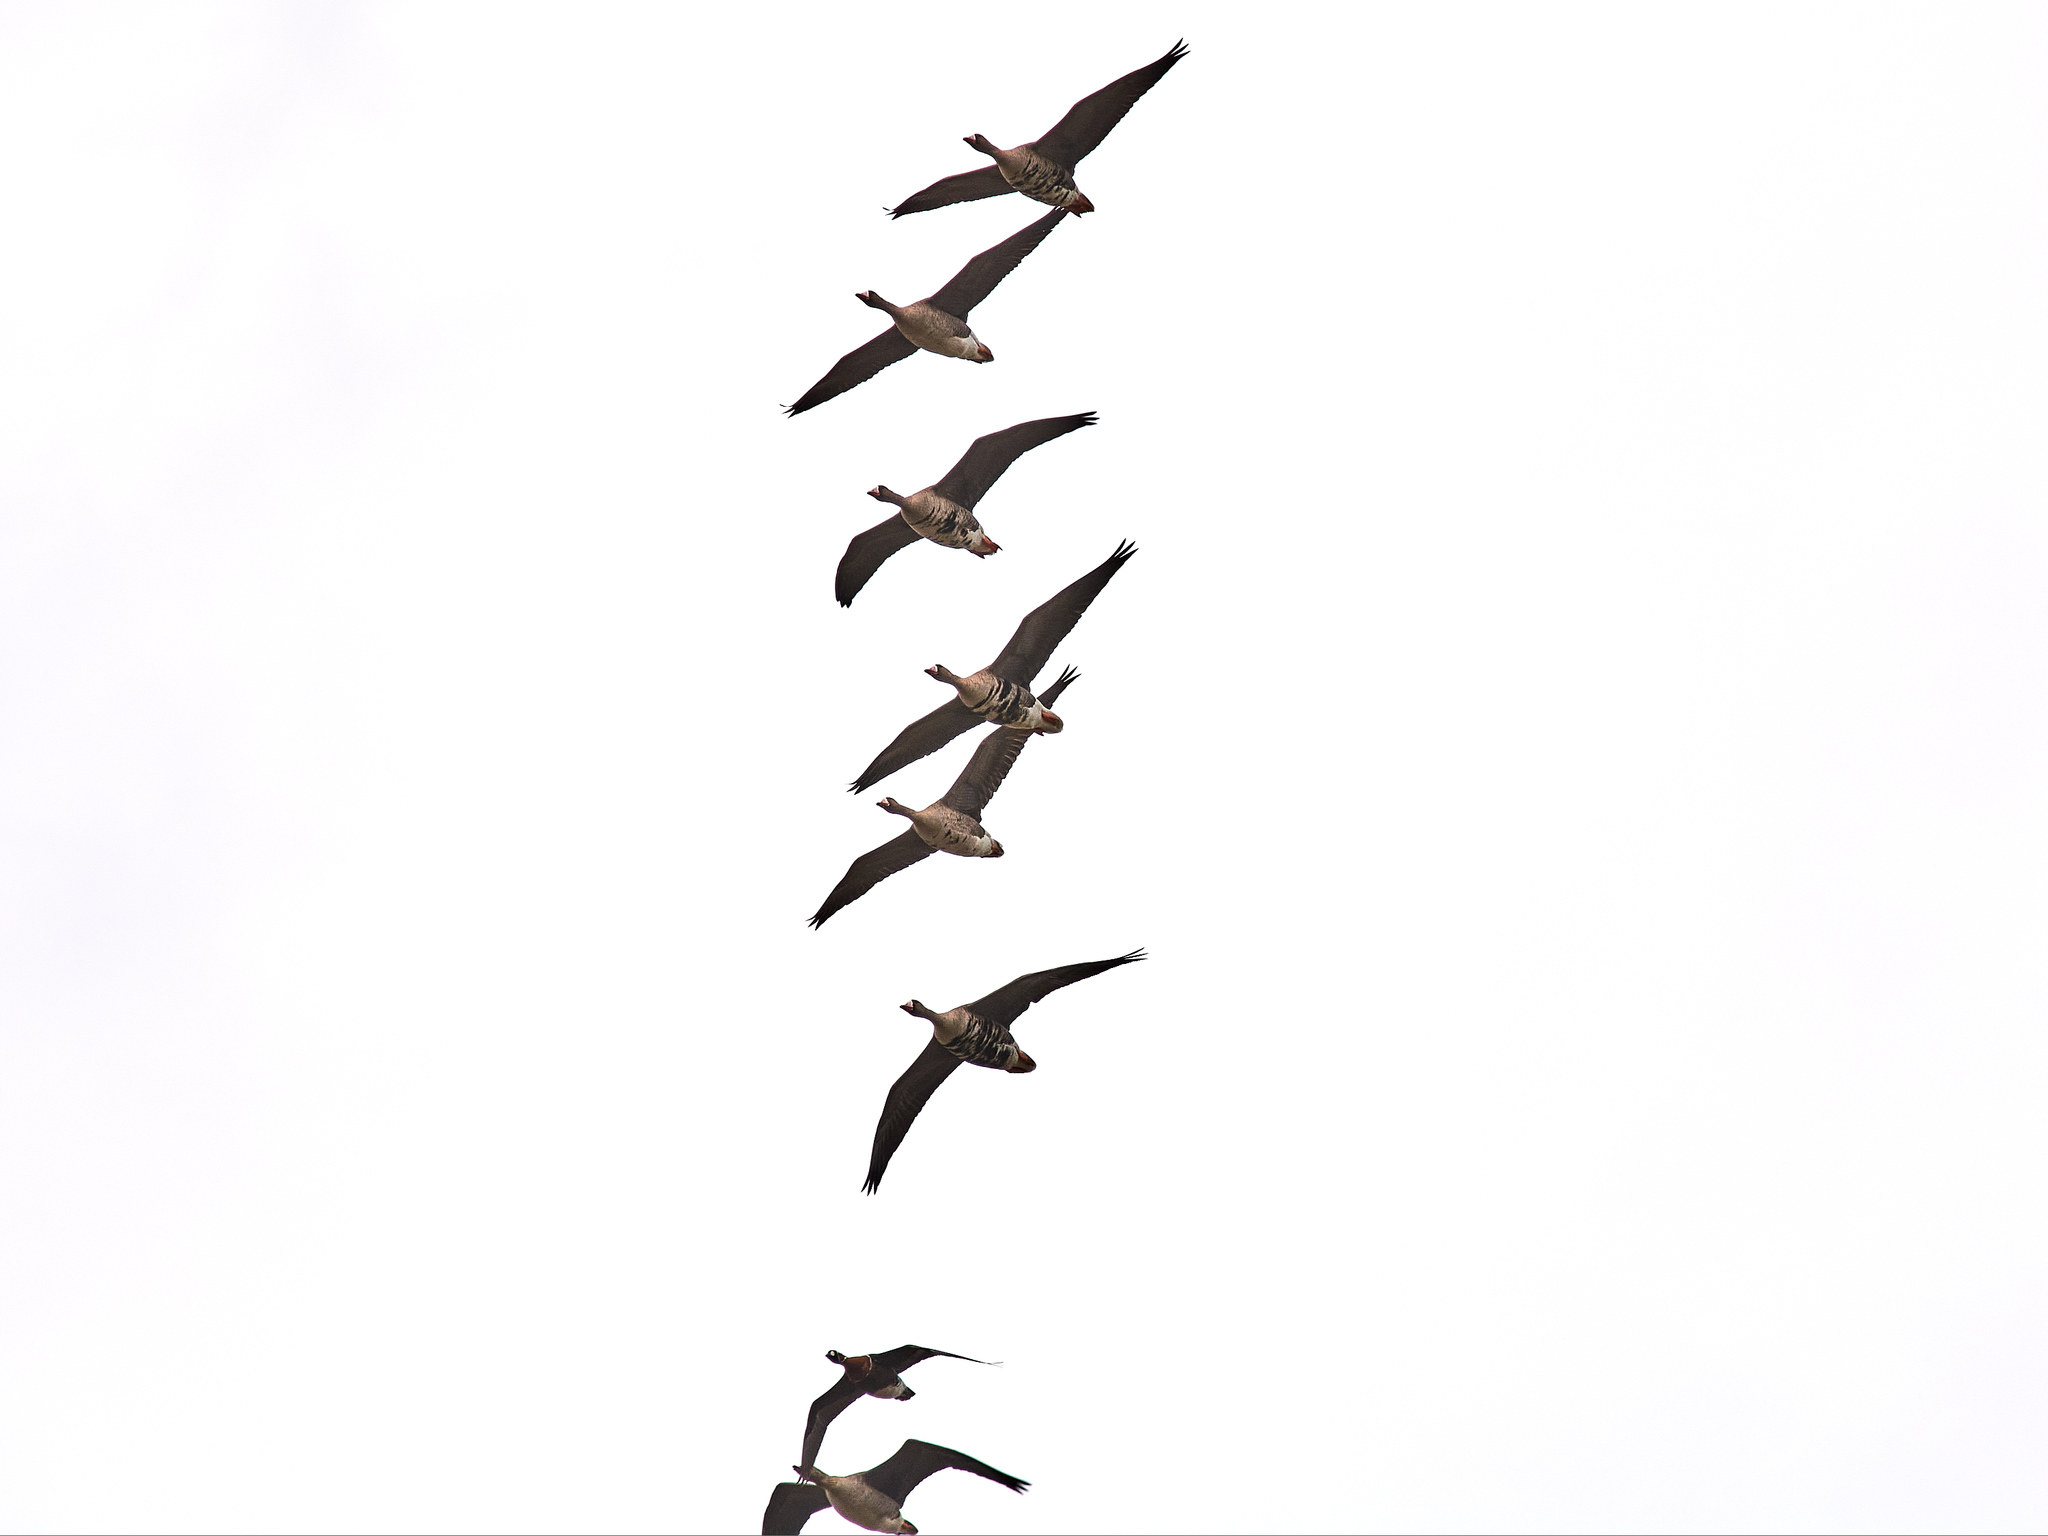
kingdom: Animalia
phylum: Chordata
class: Aves
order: Anseriformes
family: Anatidae
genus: Branta
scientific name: Branta ruficollis
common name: Red-breasted goose
